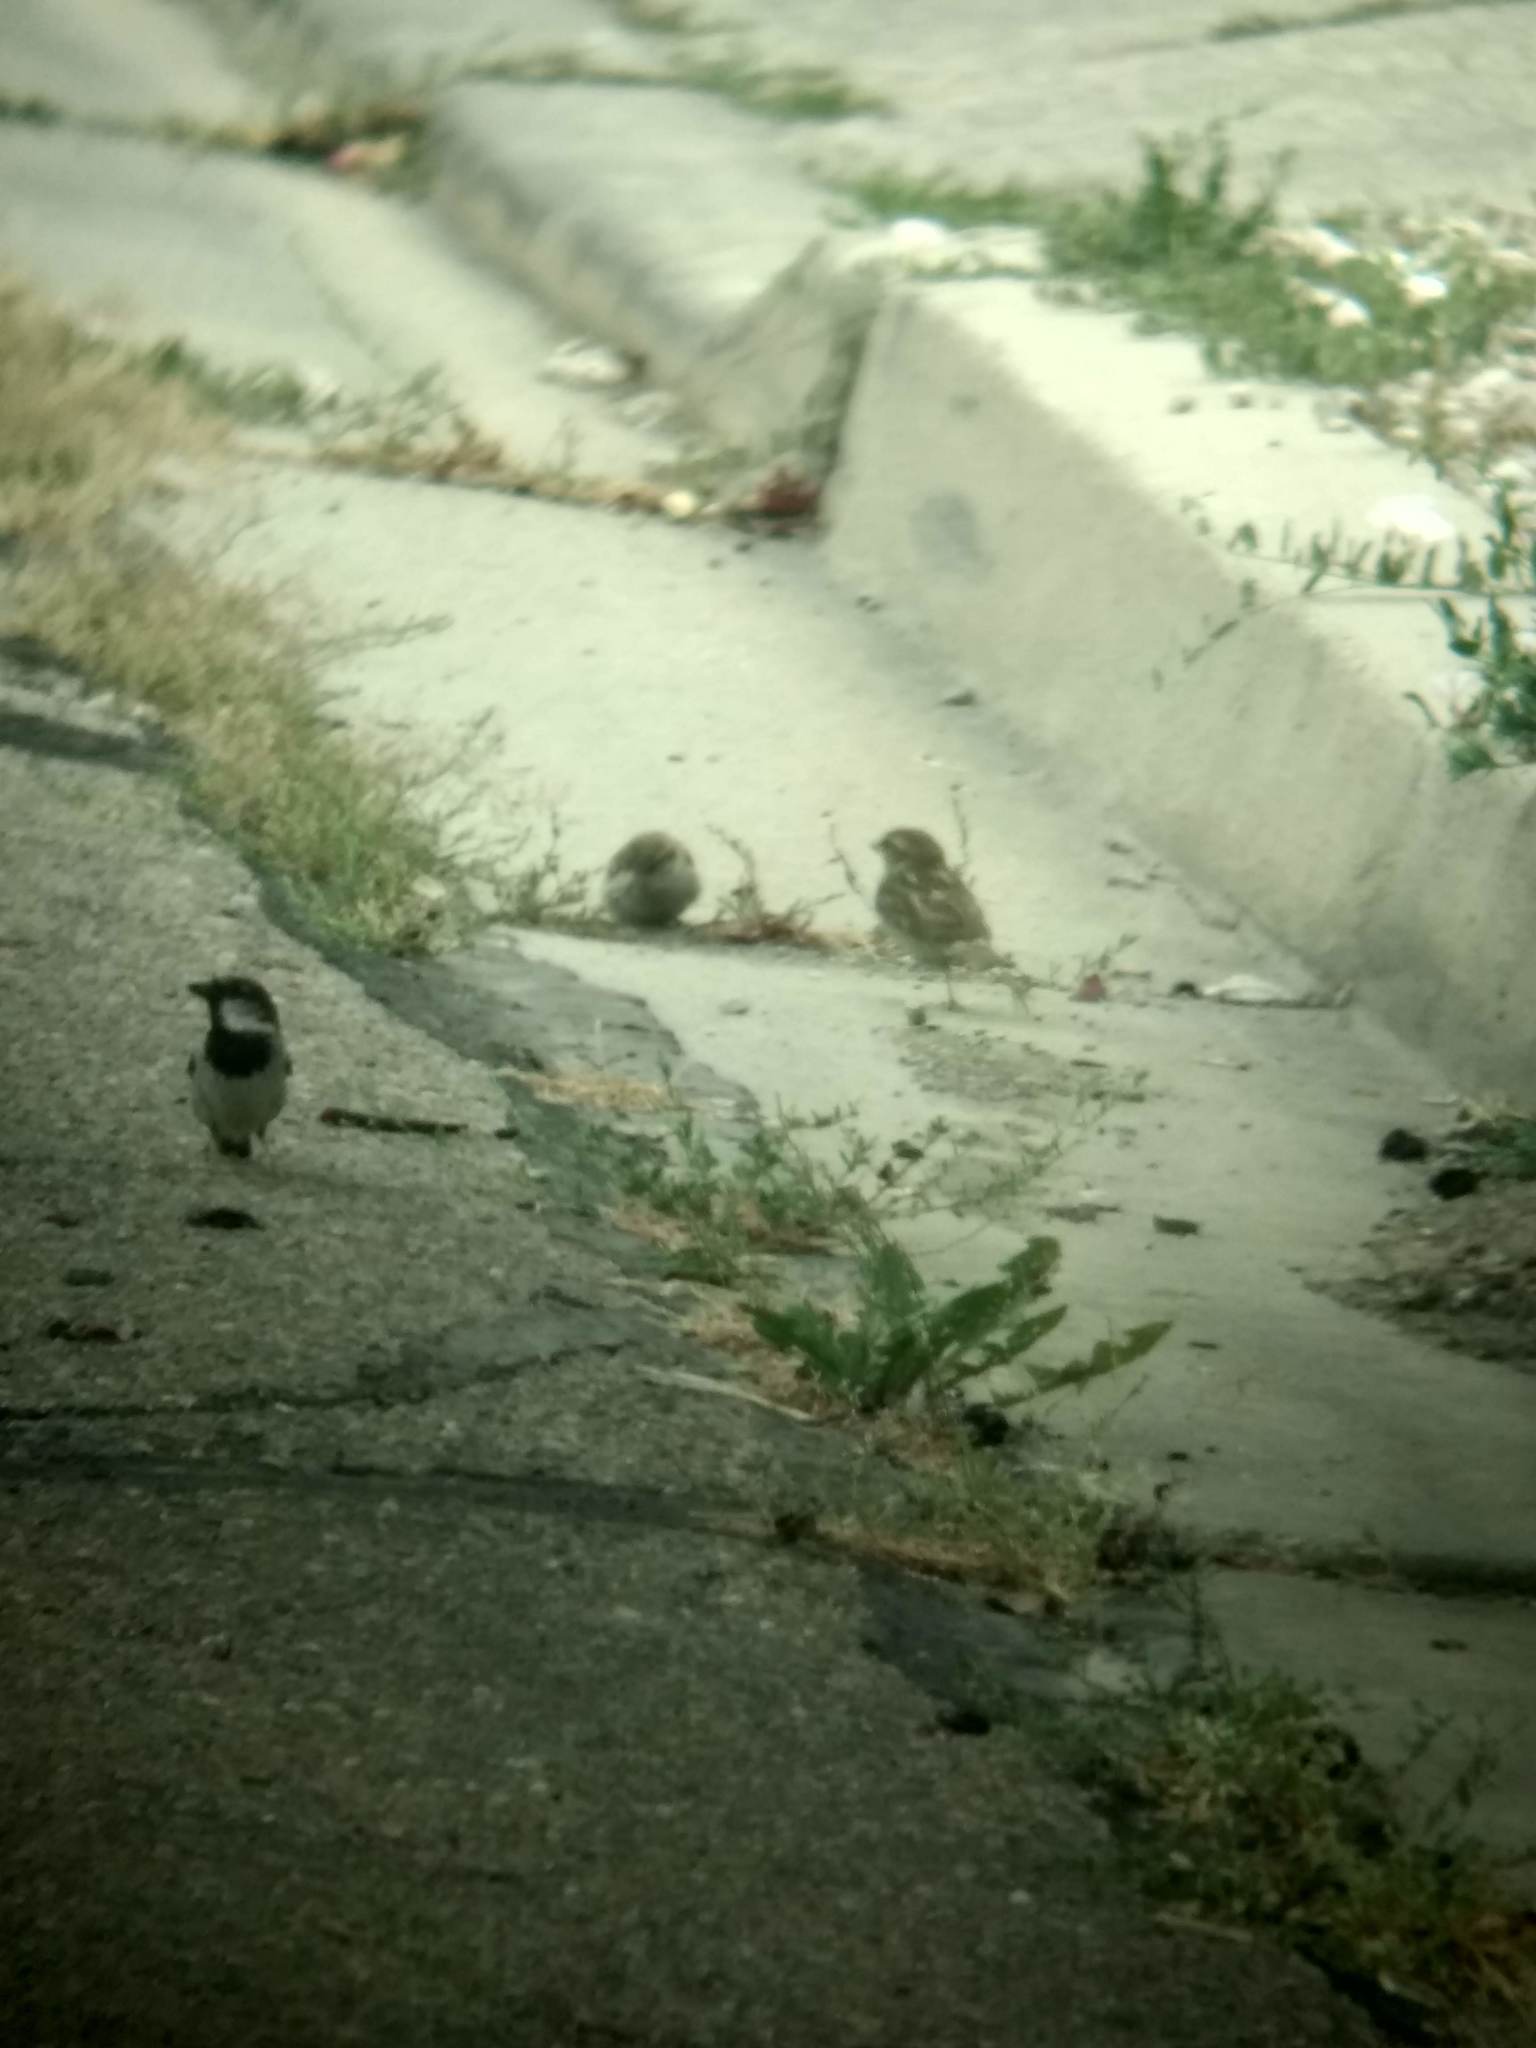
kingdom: Animalia
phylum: Chordata
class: Aves
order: Passeriformes
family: Passeridae
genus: Passer
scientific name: Passer domesticus
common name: House sparrow
